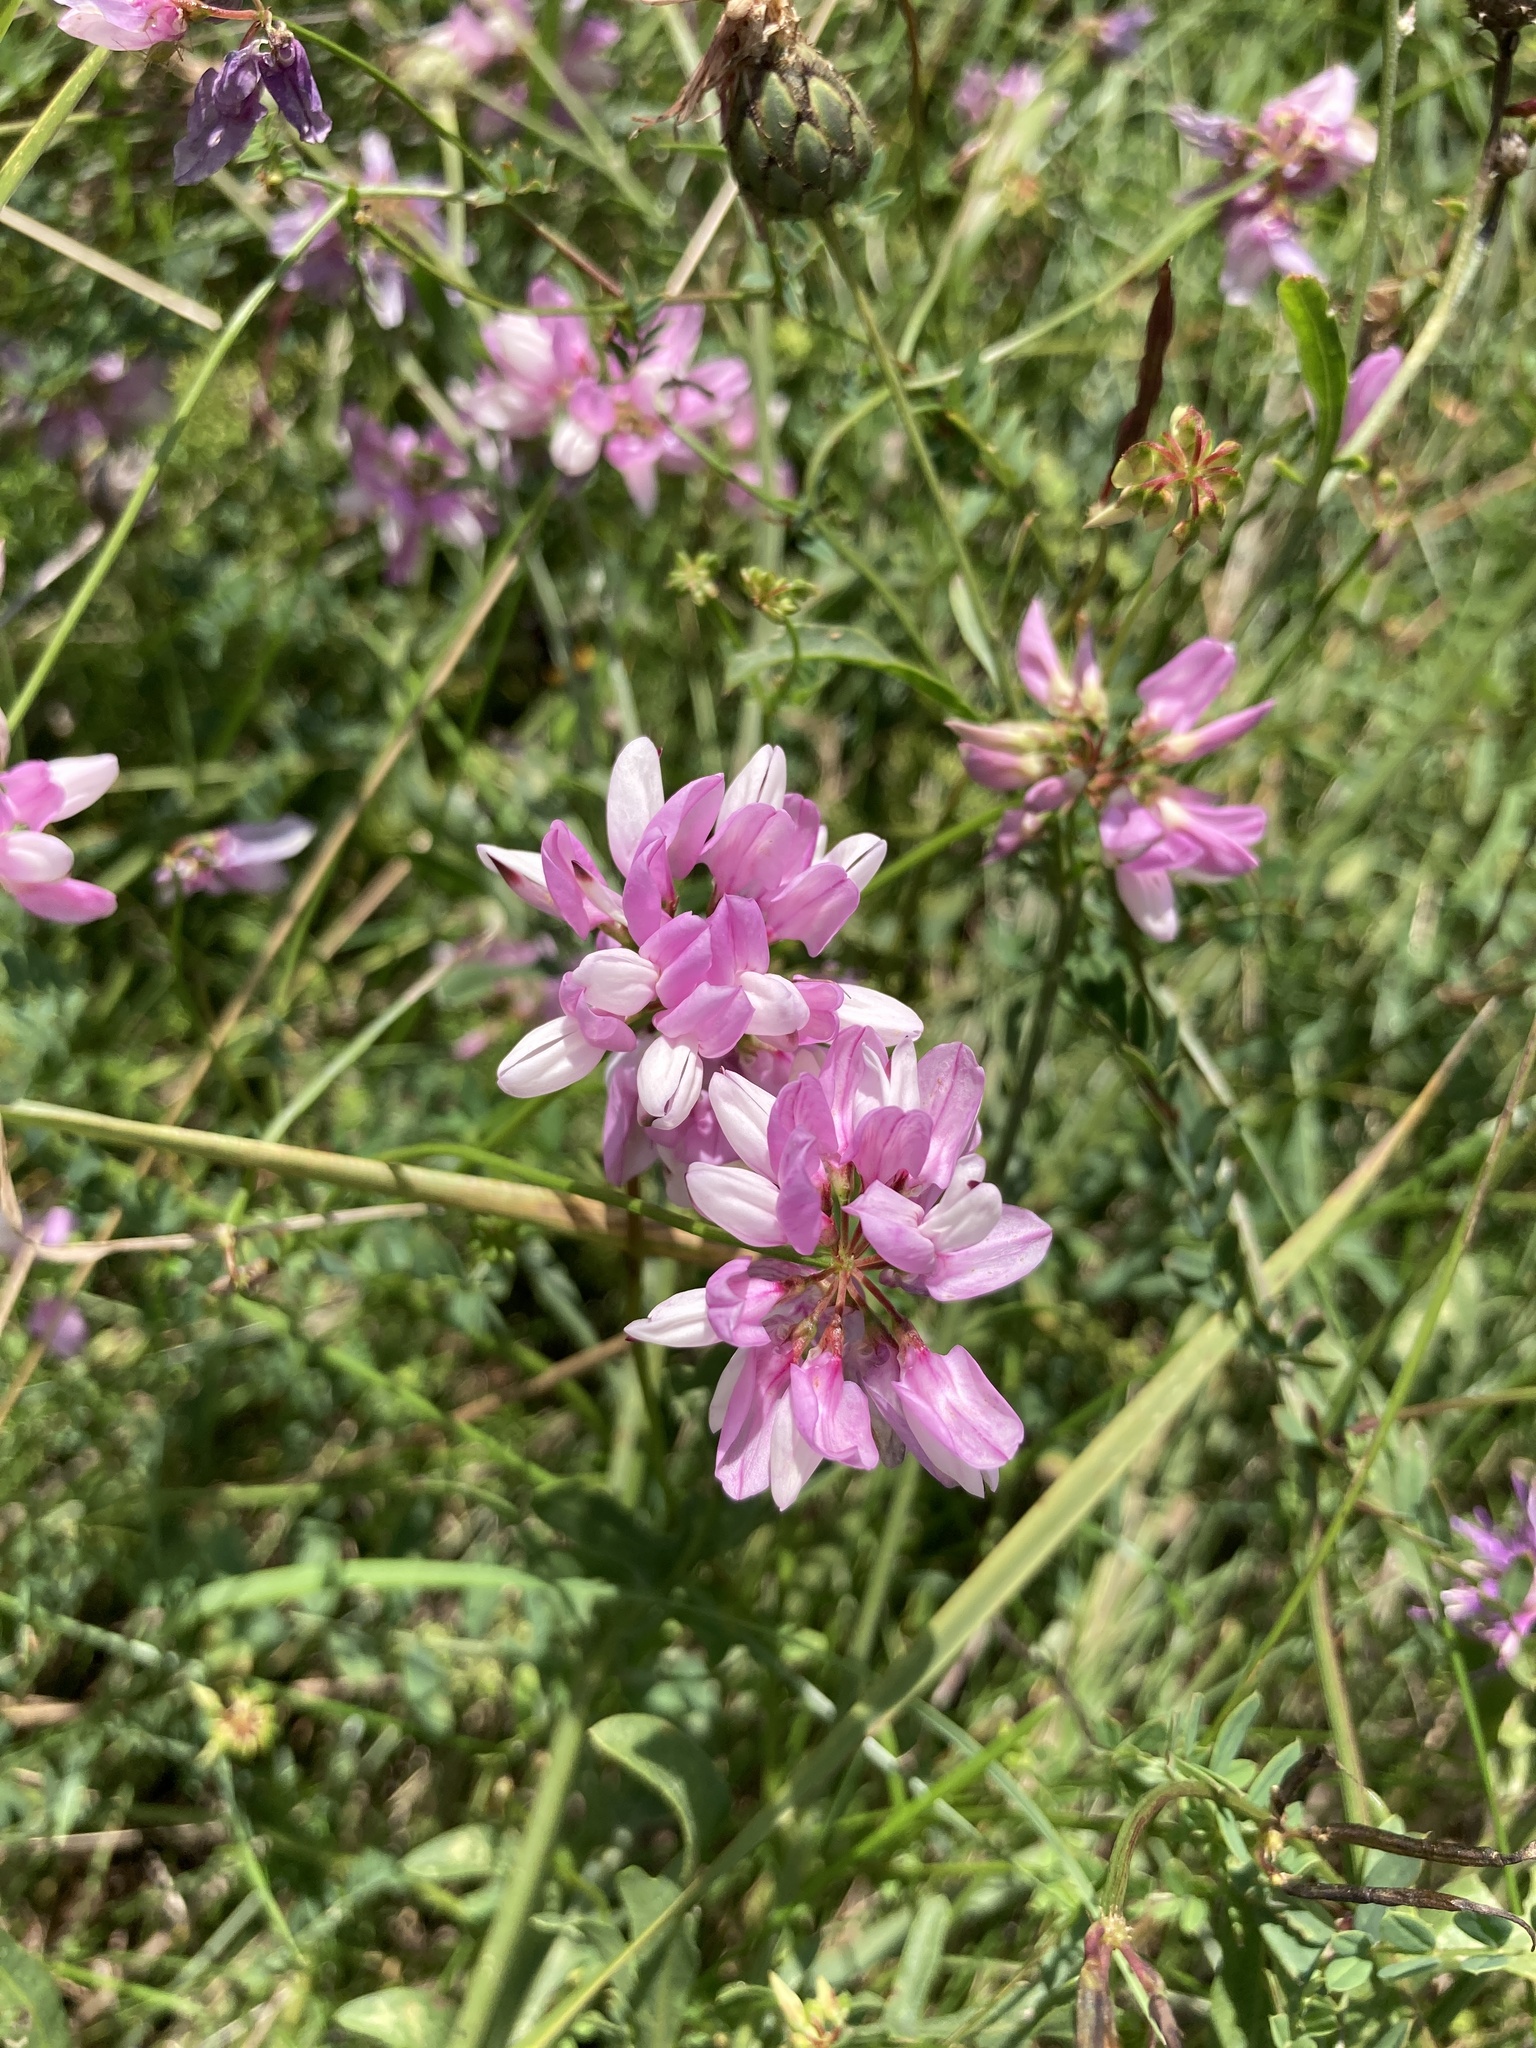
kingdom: Plantae
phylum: Tracheophyta
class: Magnoliopsida
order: Fabales
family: Fabaceae
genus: Coronilla
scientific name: Coronilla varia
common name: Crownvetch
